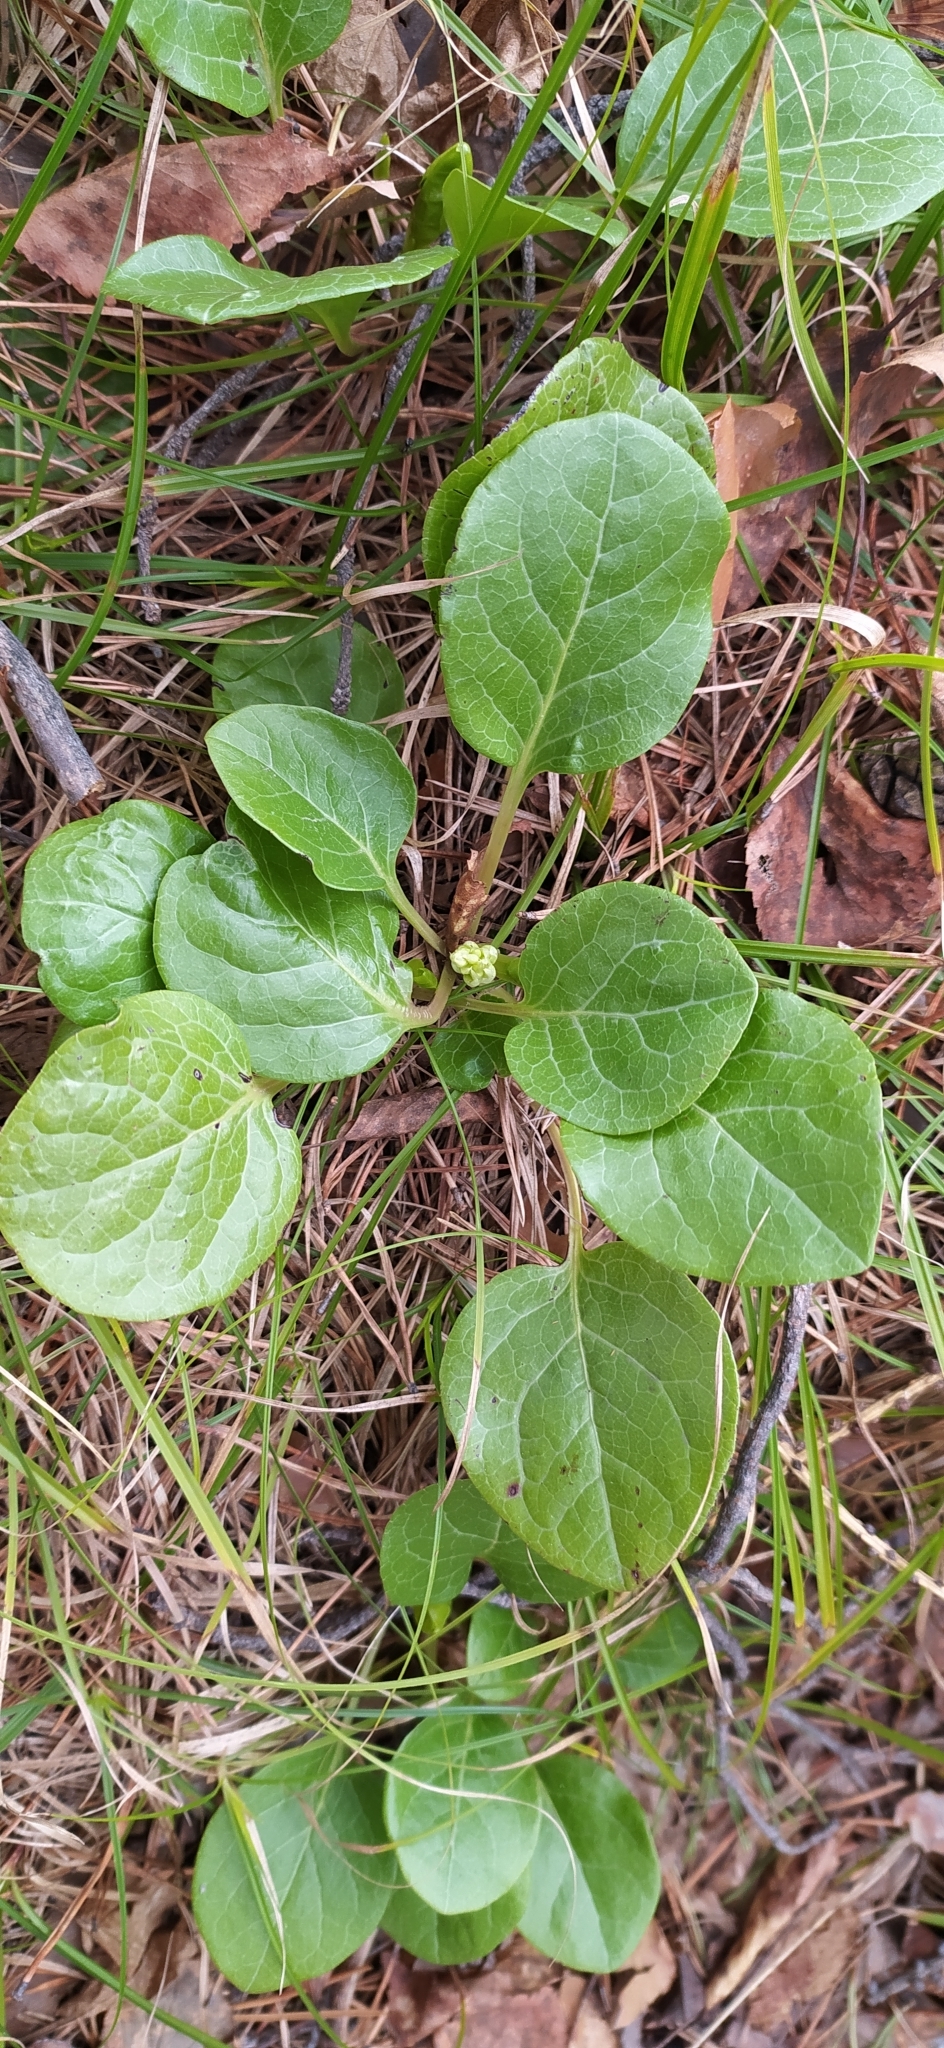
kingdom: Plantae
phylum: Tracheophyta
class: Magnoliopsida
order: Ericales
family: Ericaceae
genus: Pyrola
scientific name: Pyrola rotundifolia
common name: Round-leaved wintergreen
